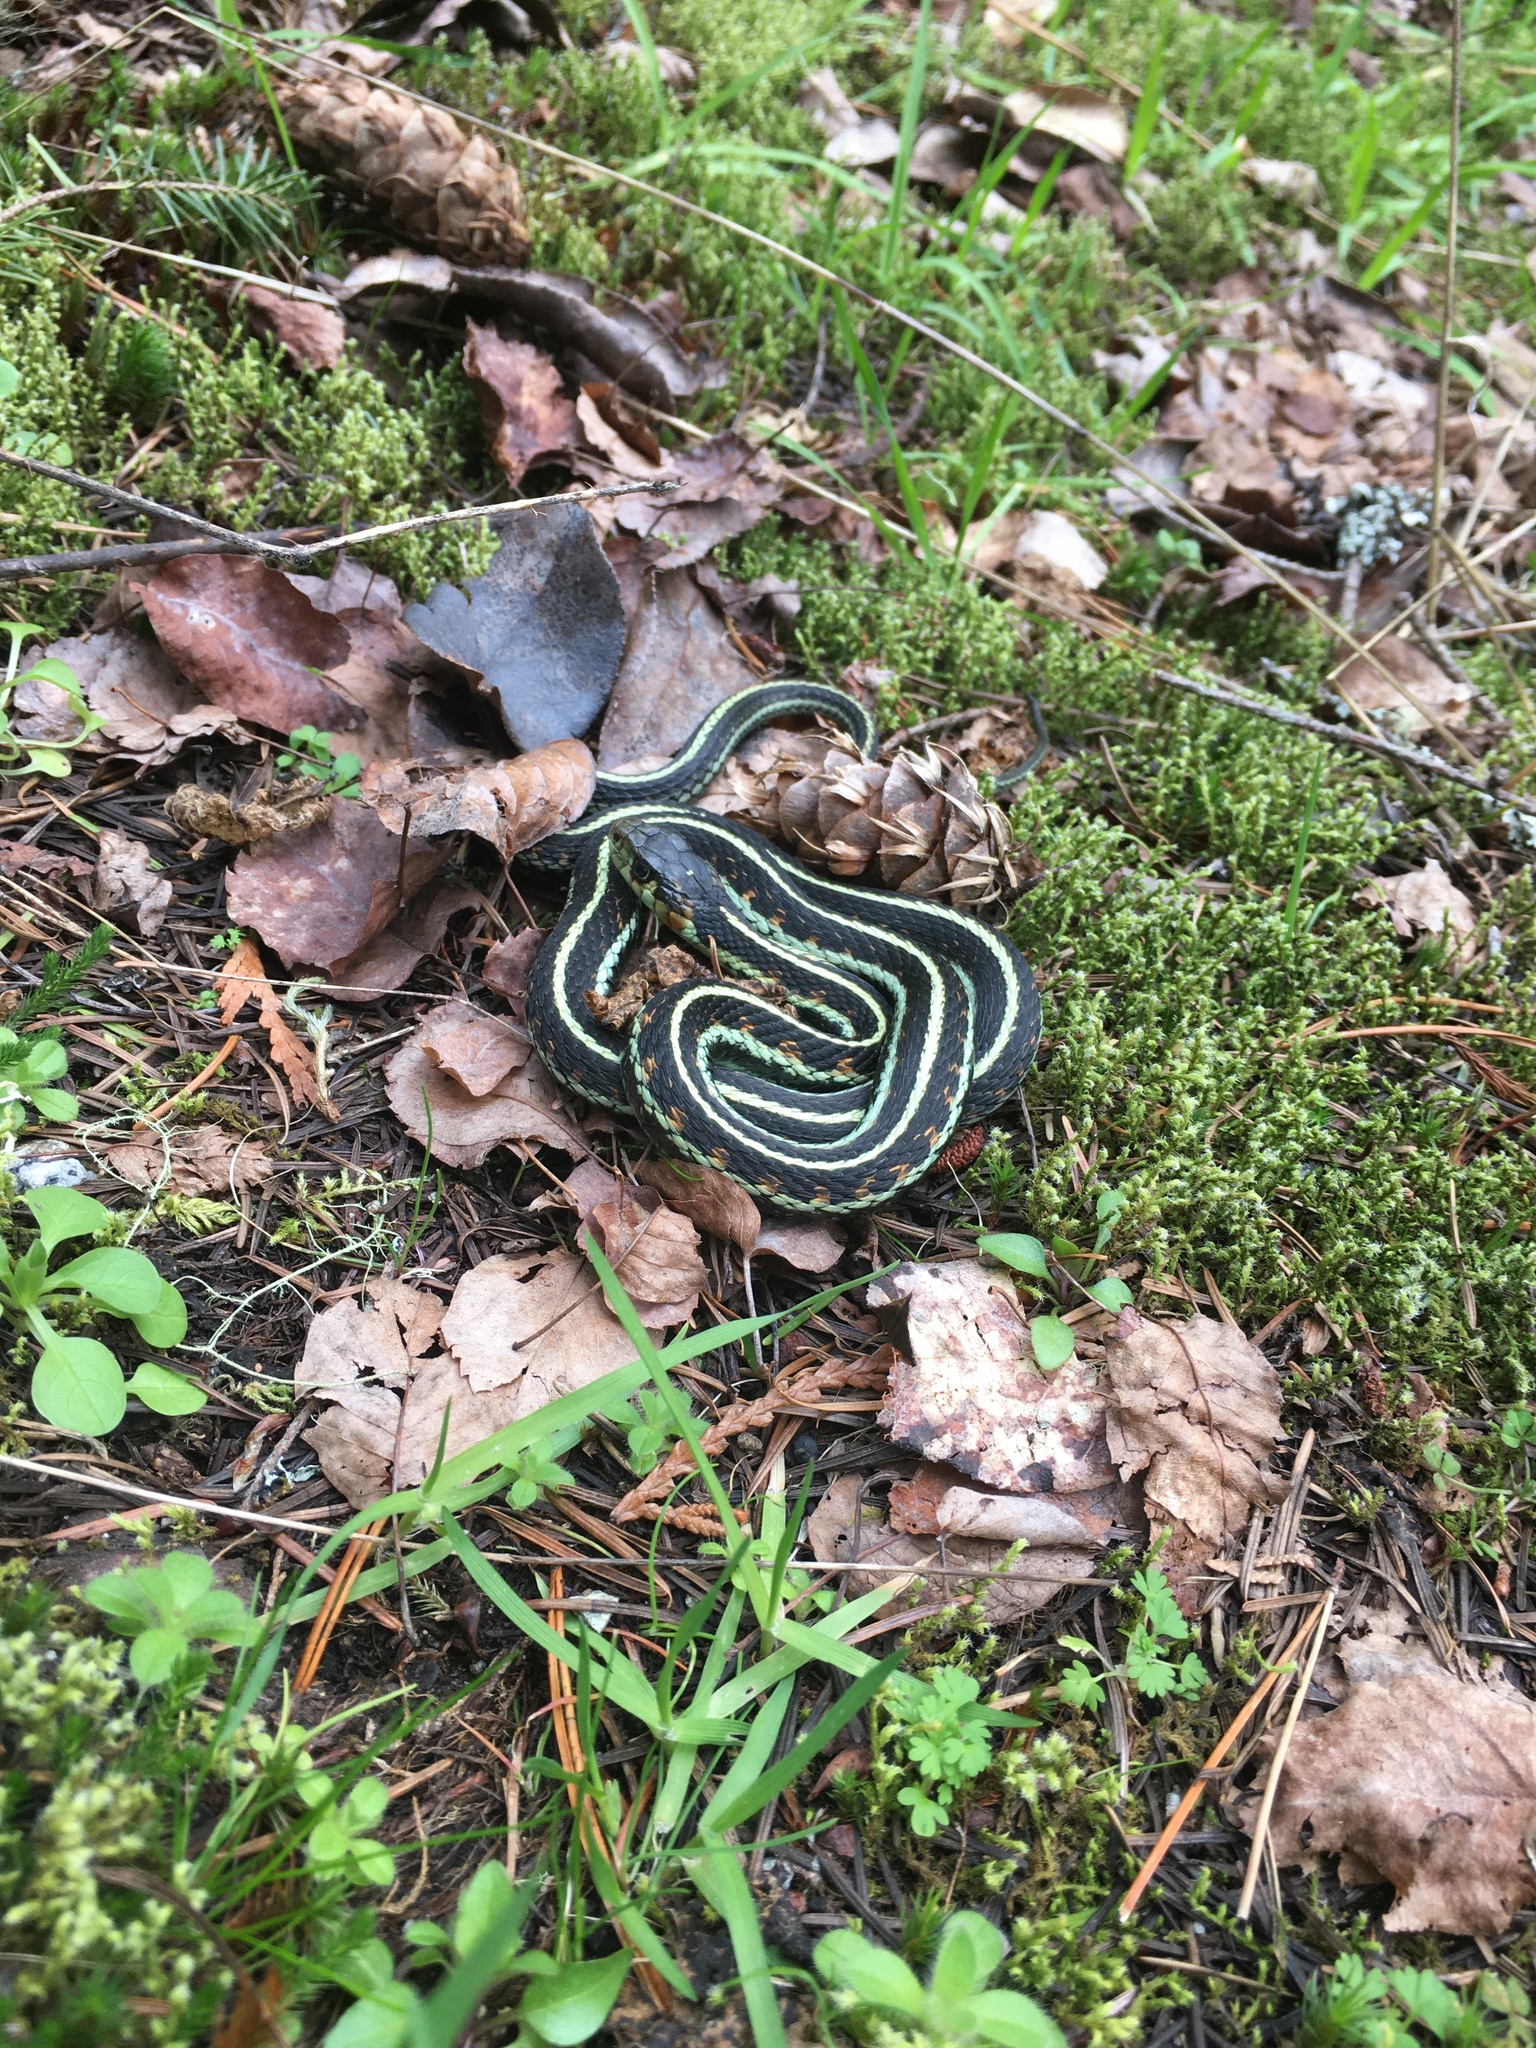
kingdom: Animalia
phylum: Chordata
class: Squamata
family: Colubridae
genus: Thamnophis
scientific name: Thamnophis sirtalis
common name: Common garter snake
